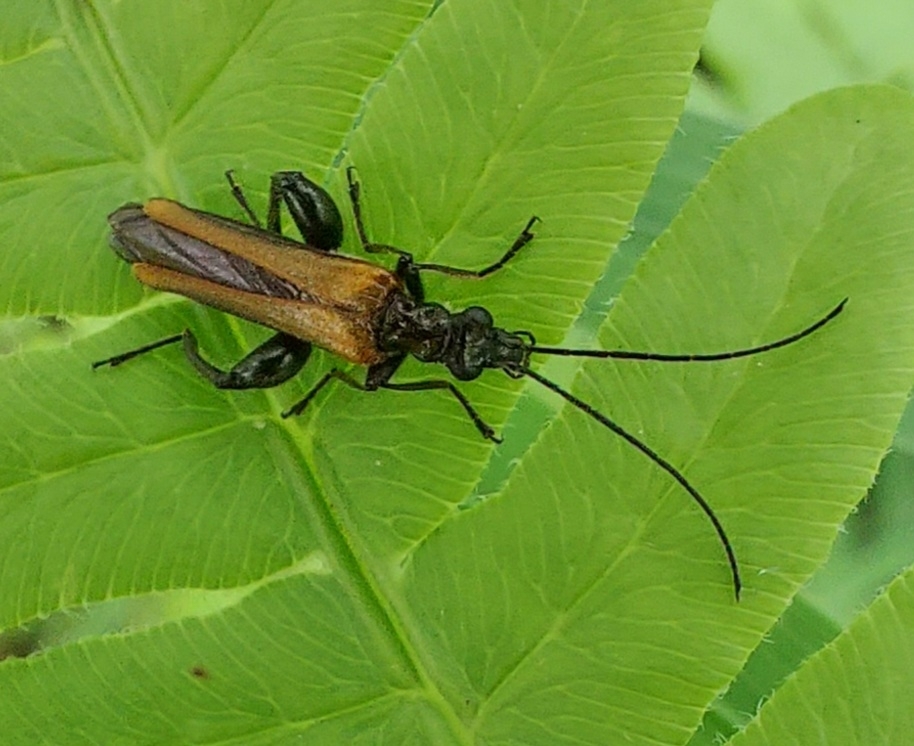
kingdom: Animalia
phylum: Arthropoda
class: Insecta
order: Coleoptera
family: Oedemeridae
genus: Oedemera
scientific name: Oedemera femorata
